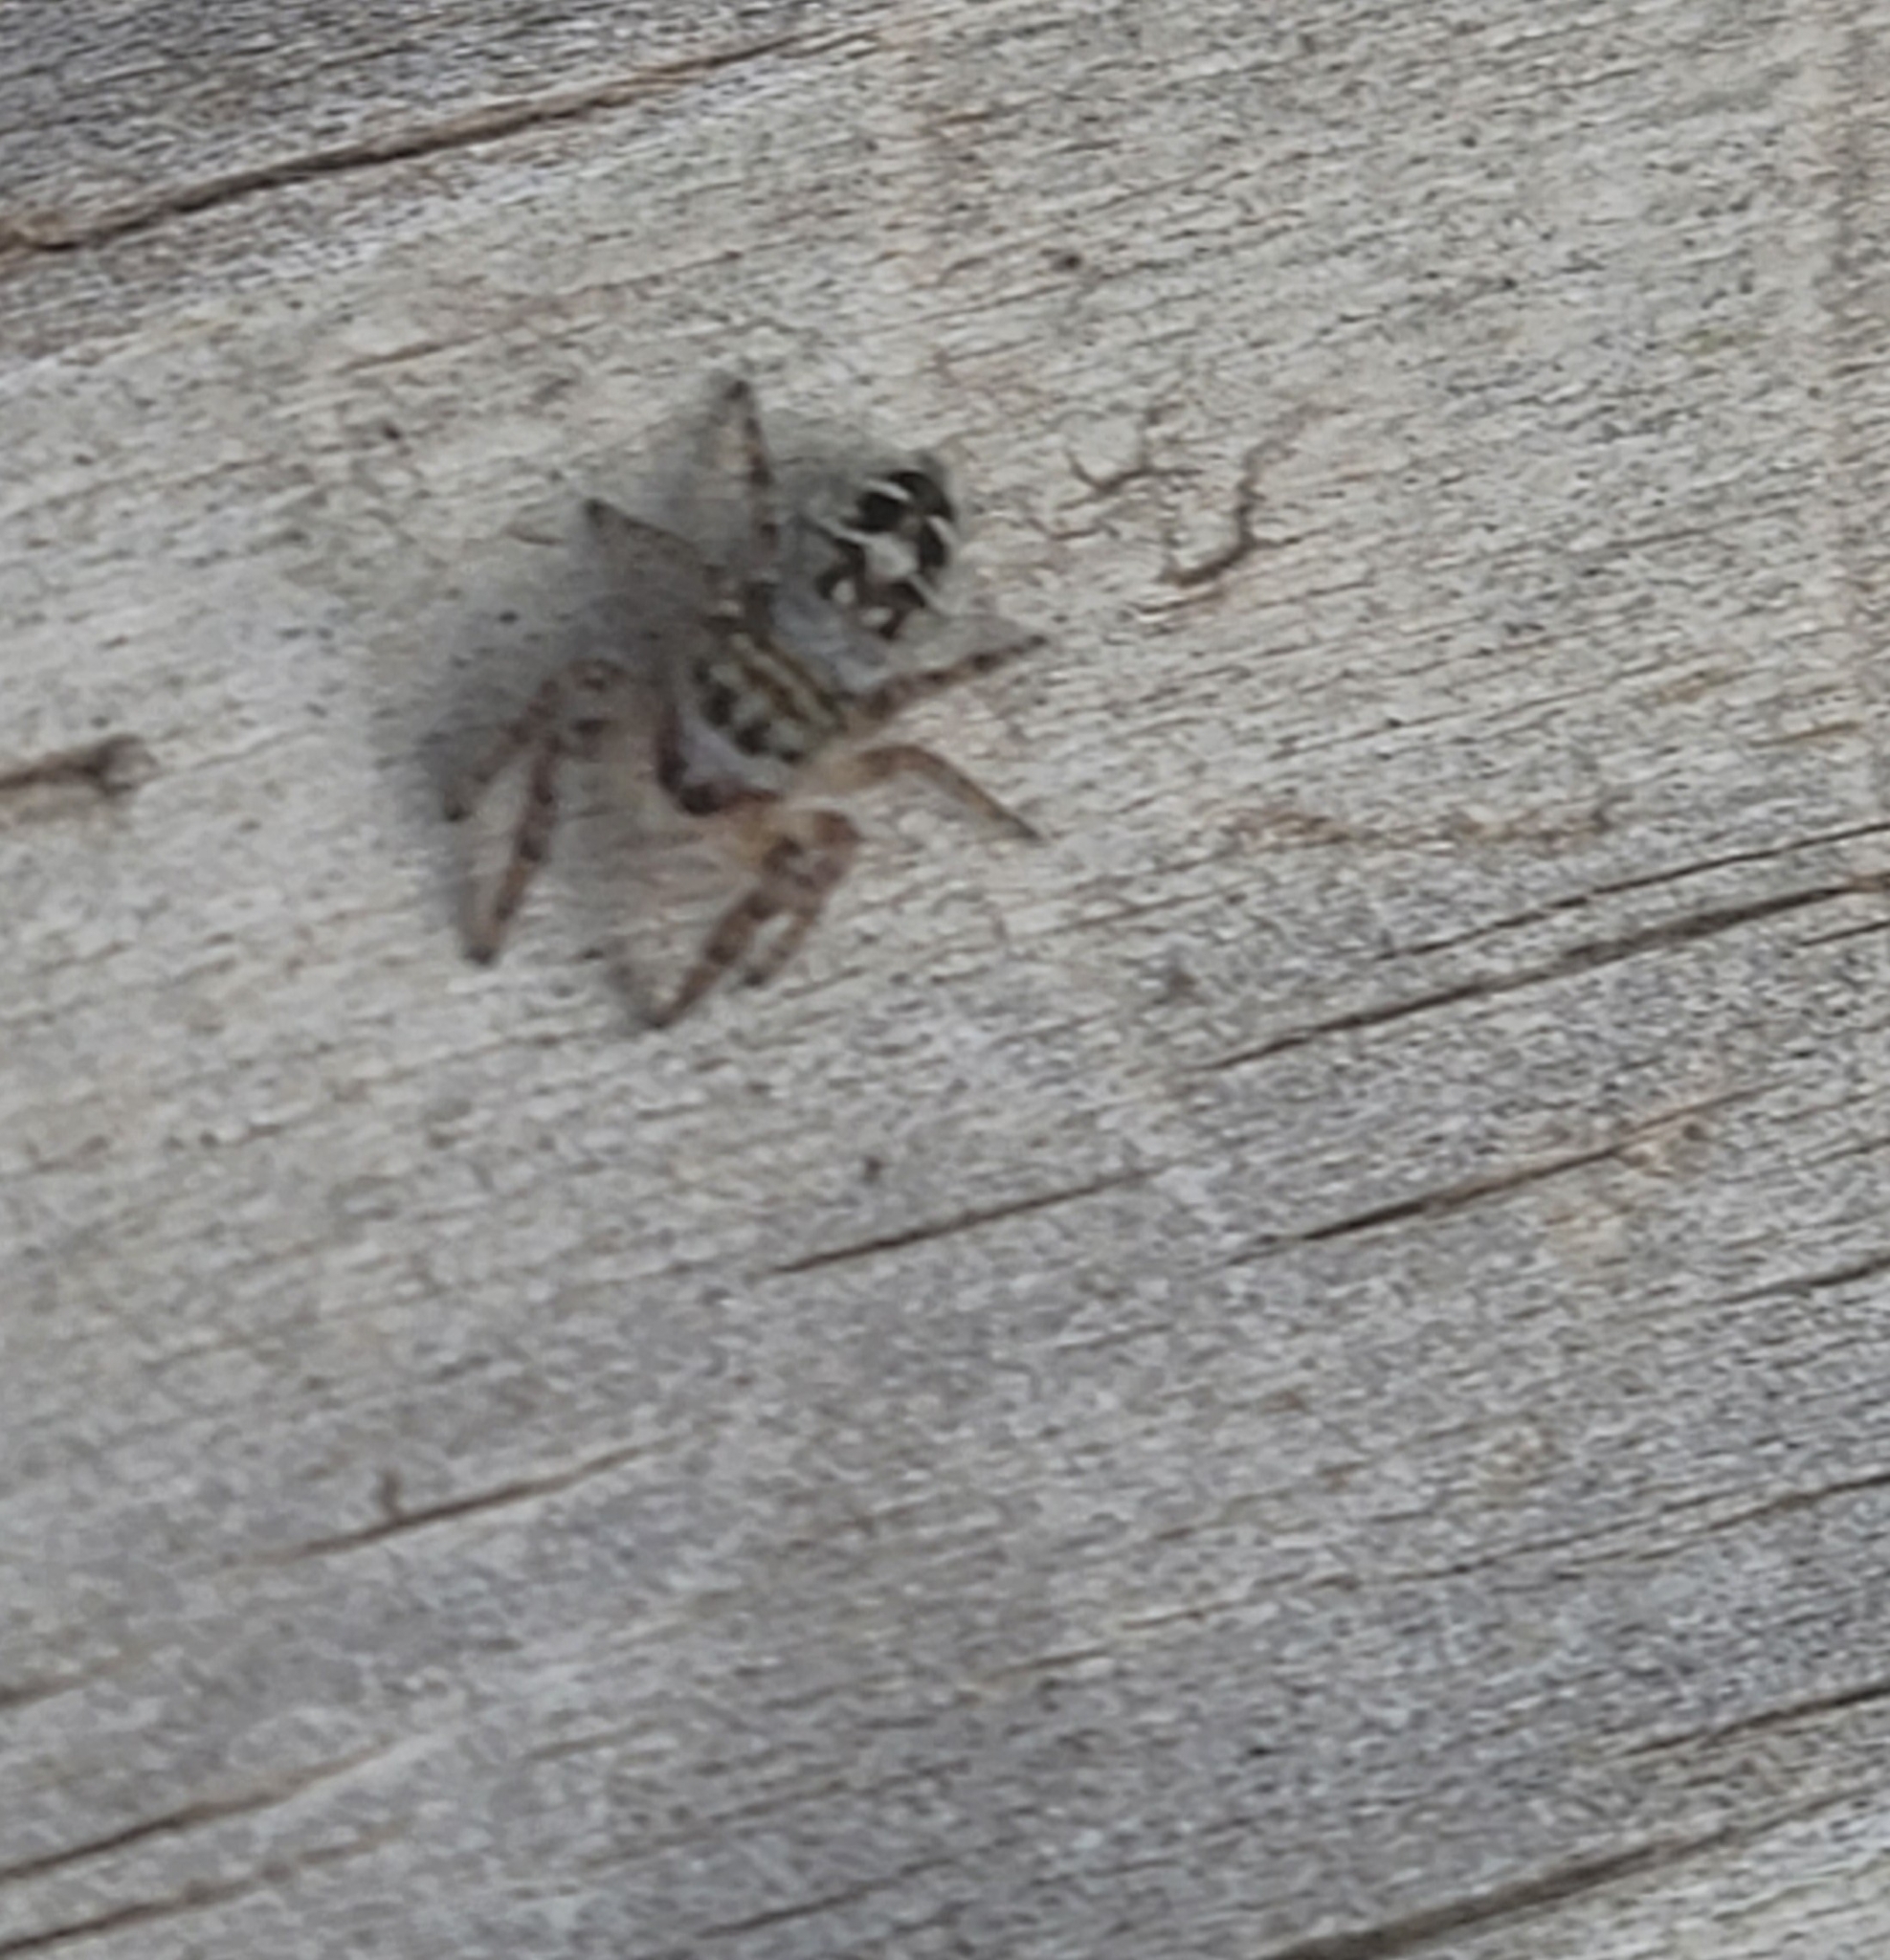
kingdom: Animalia
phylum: Arthropoda
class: Arachnida
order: Araneae
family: Salticidae
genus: Phidippus
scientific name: Phidippus carolinensis
